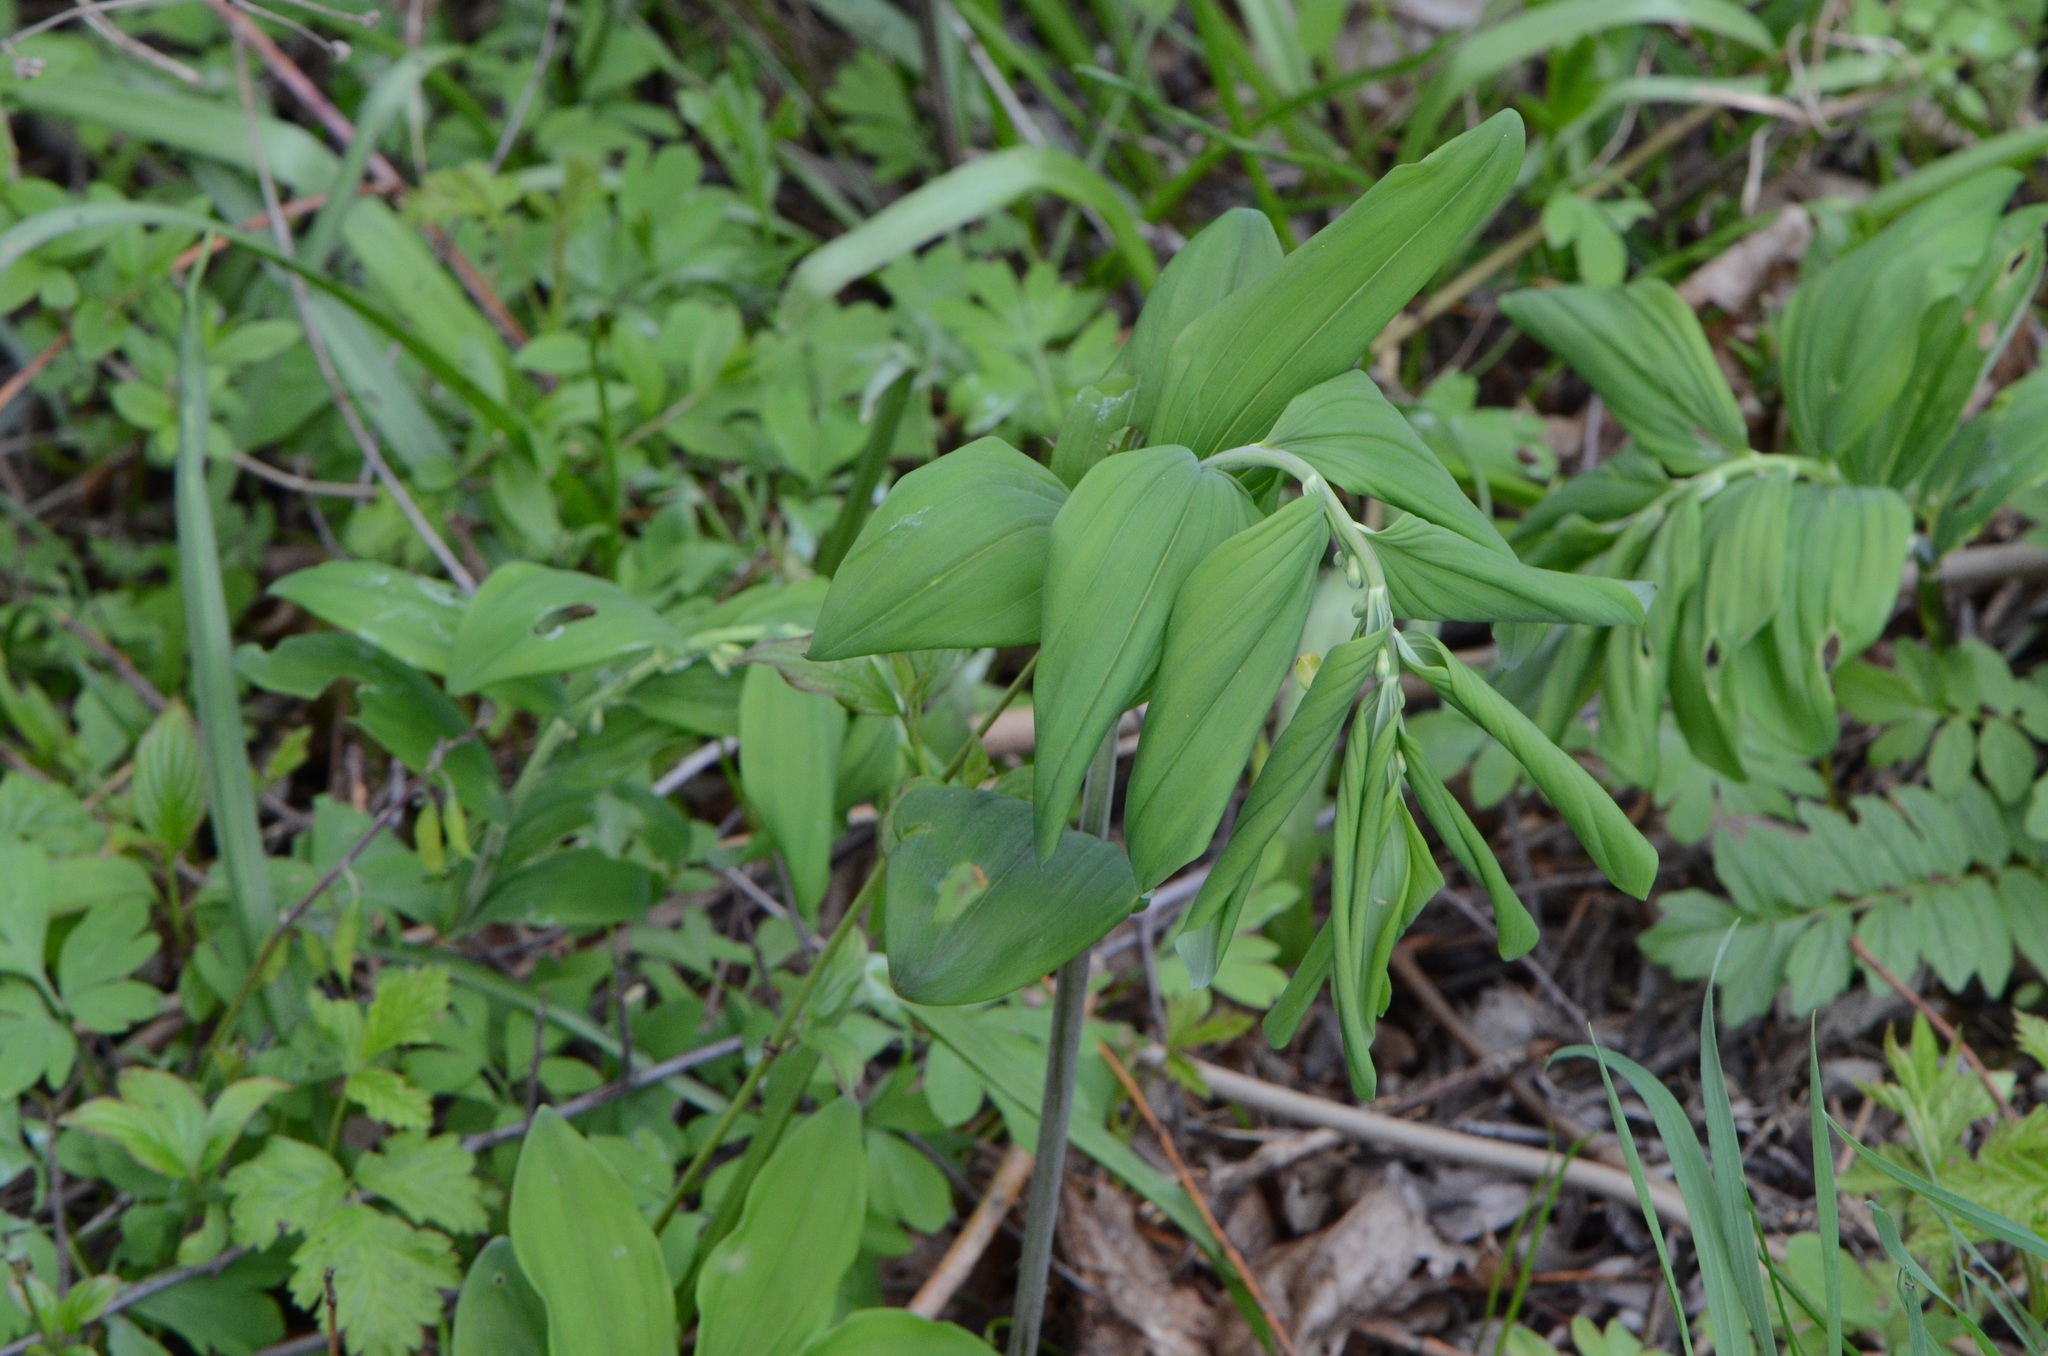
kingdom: Plantae
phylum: Tracheophyta
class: Liliopsida
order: Asparagales
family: Asparagaceae
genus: Polygonatum
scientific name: Polygonatum multiflorum
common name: Solomon's-seal
